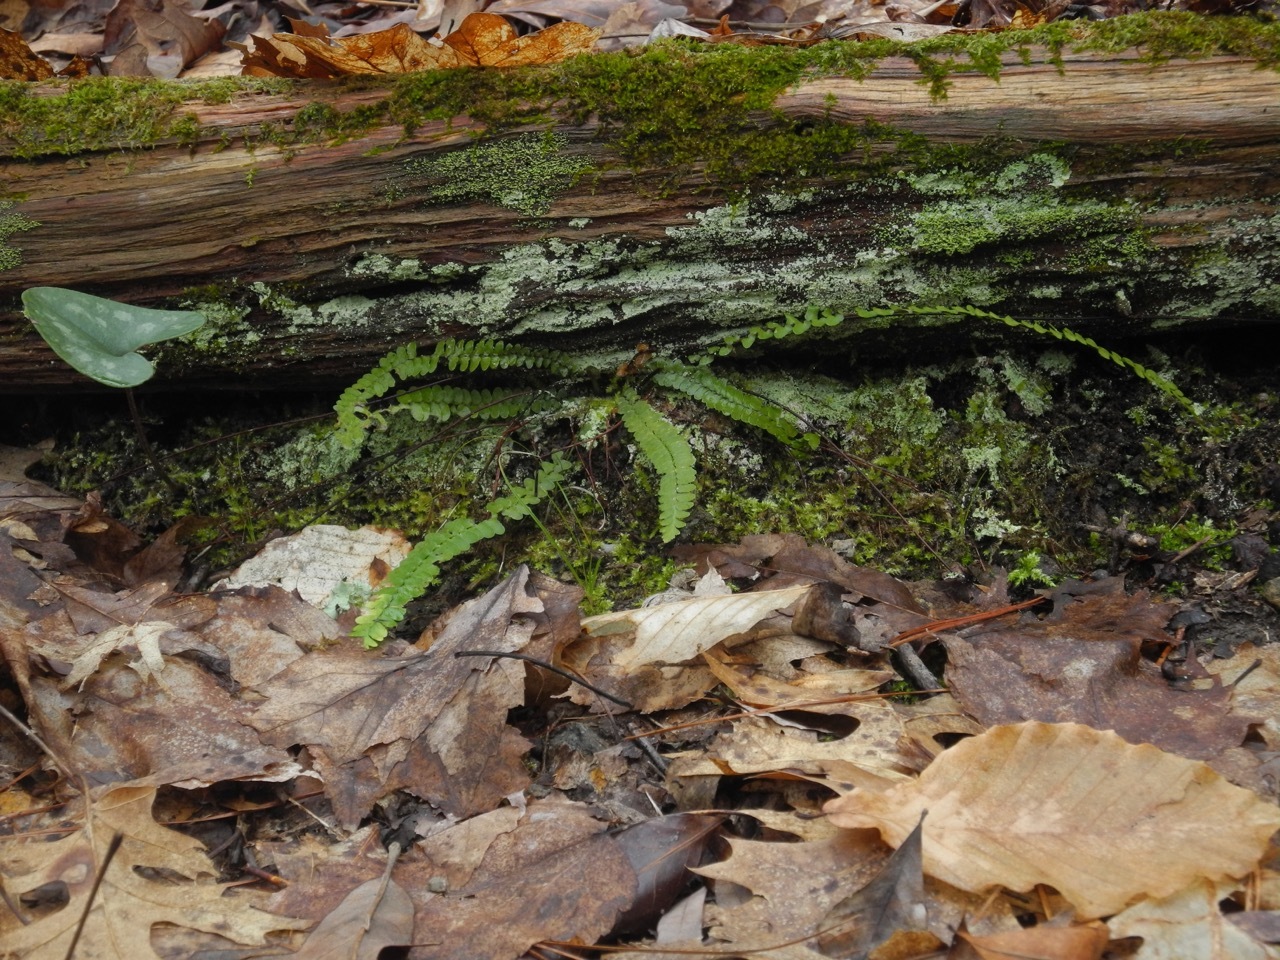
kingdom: Plantae
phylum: Tracheophyta
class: Polypodiopsida
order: Polypodiales
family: Aspleniaceae
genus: Asplenium
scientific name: Asplenium platyneuron
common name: Ebony spleenwort
